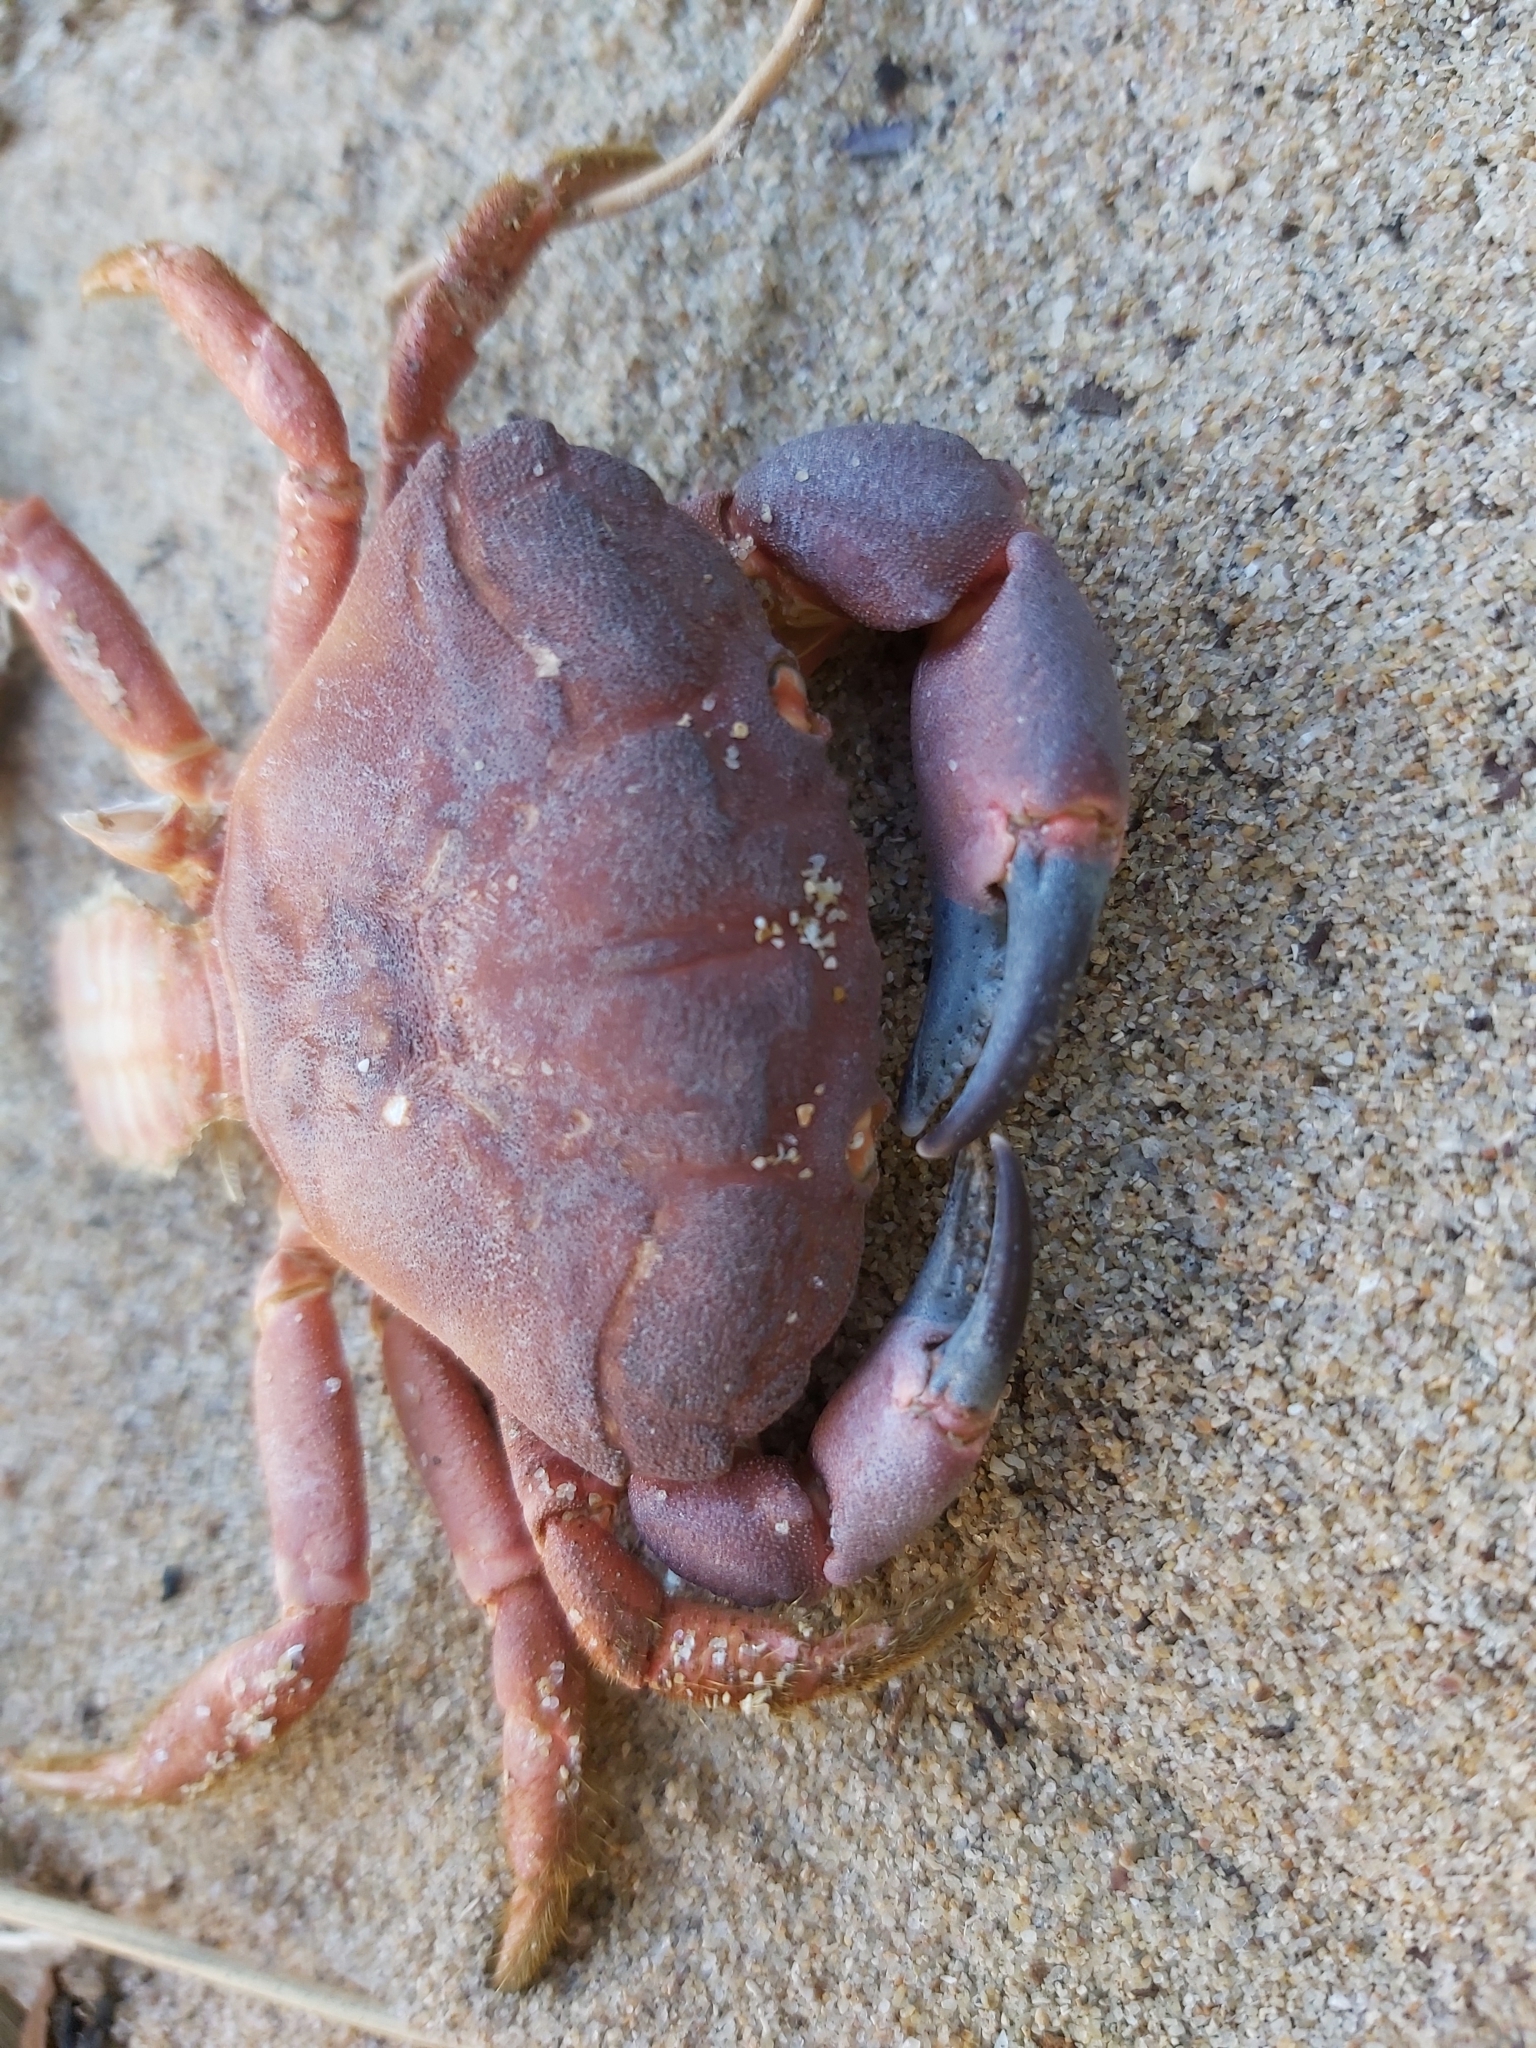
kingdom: Animalia
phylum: Arthropoda
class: Malacostraca
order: Decapoda
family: Oziidae
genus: Ozius
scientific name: Ozius truncatus
